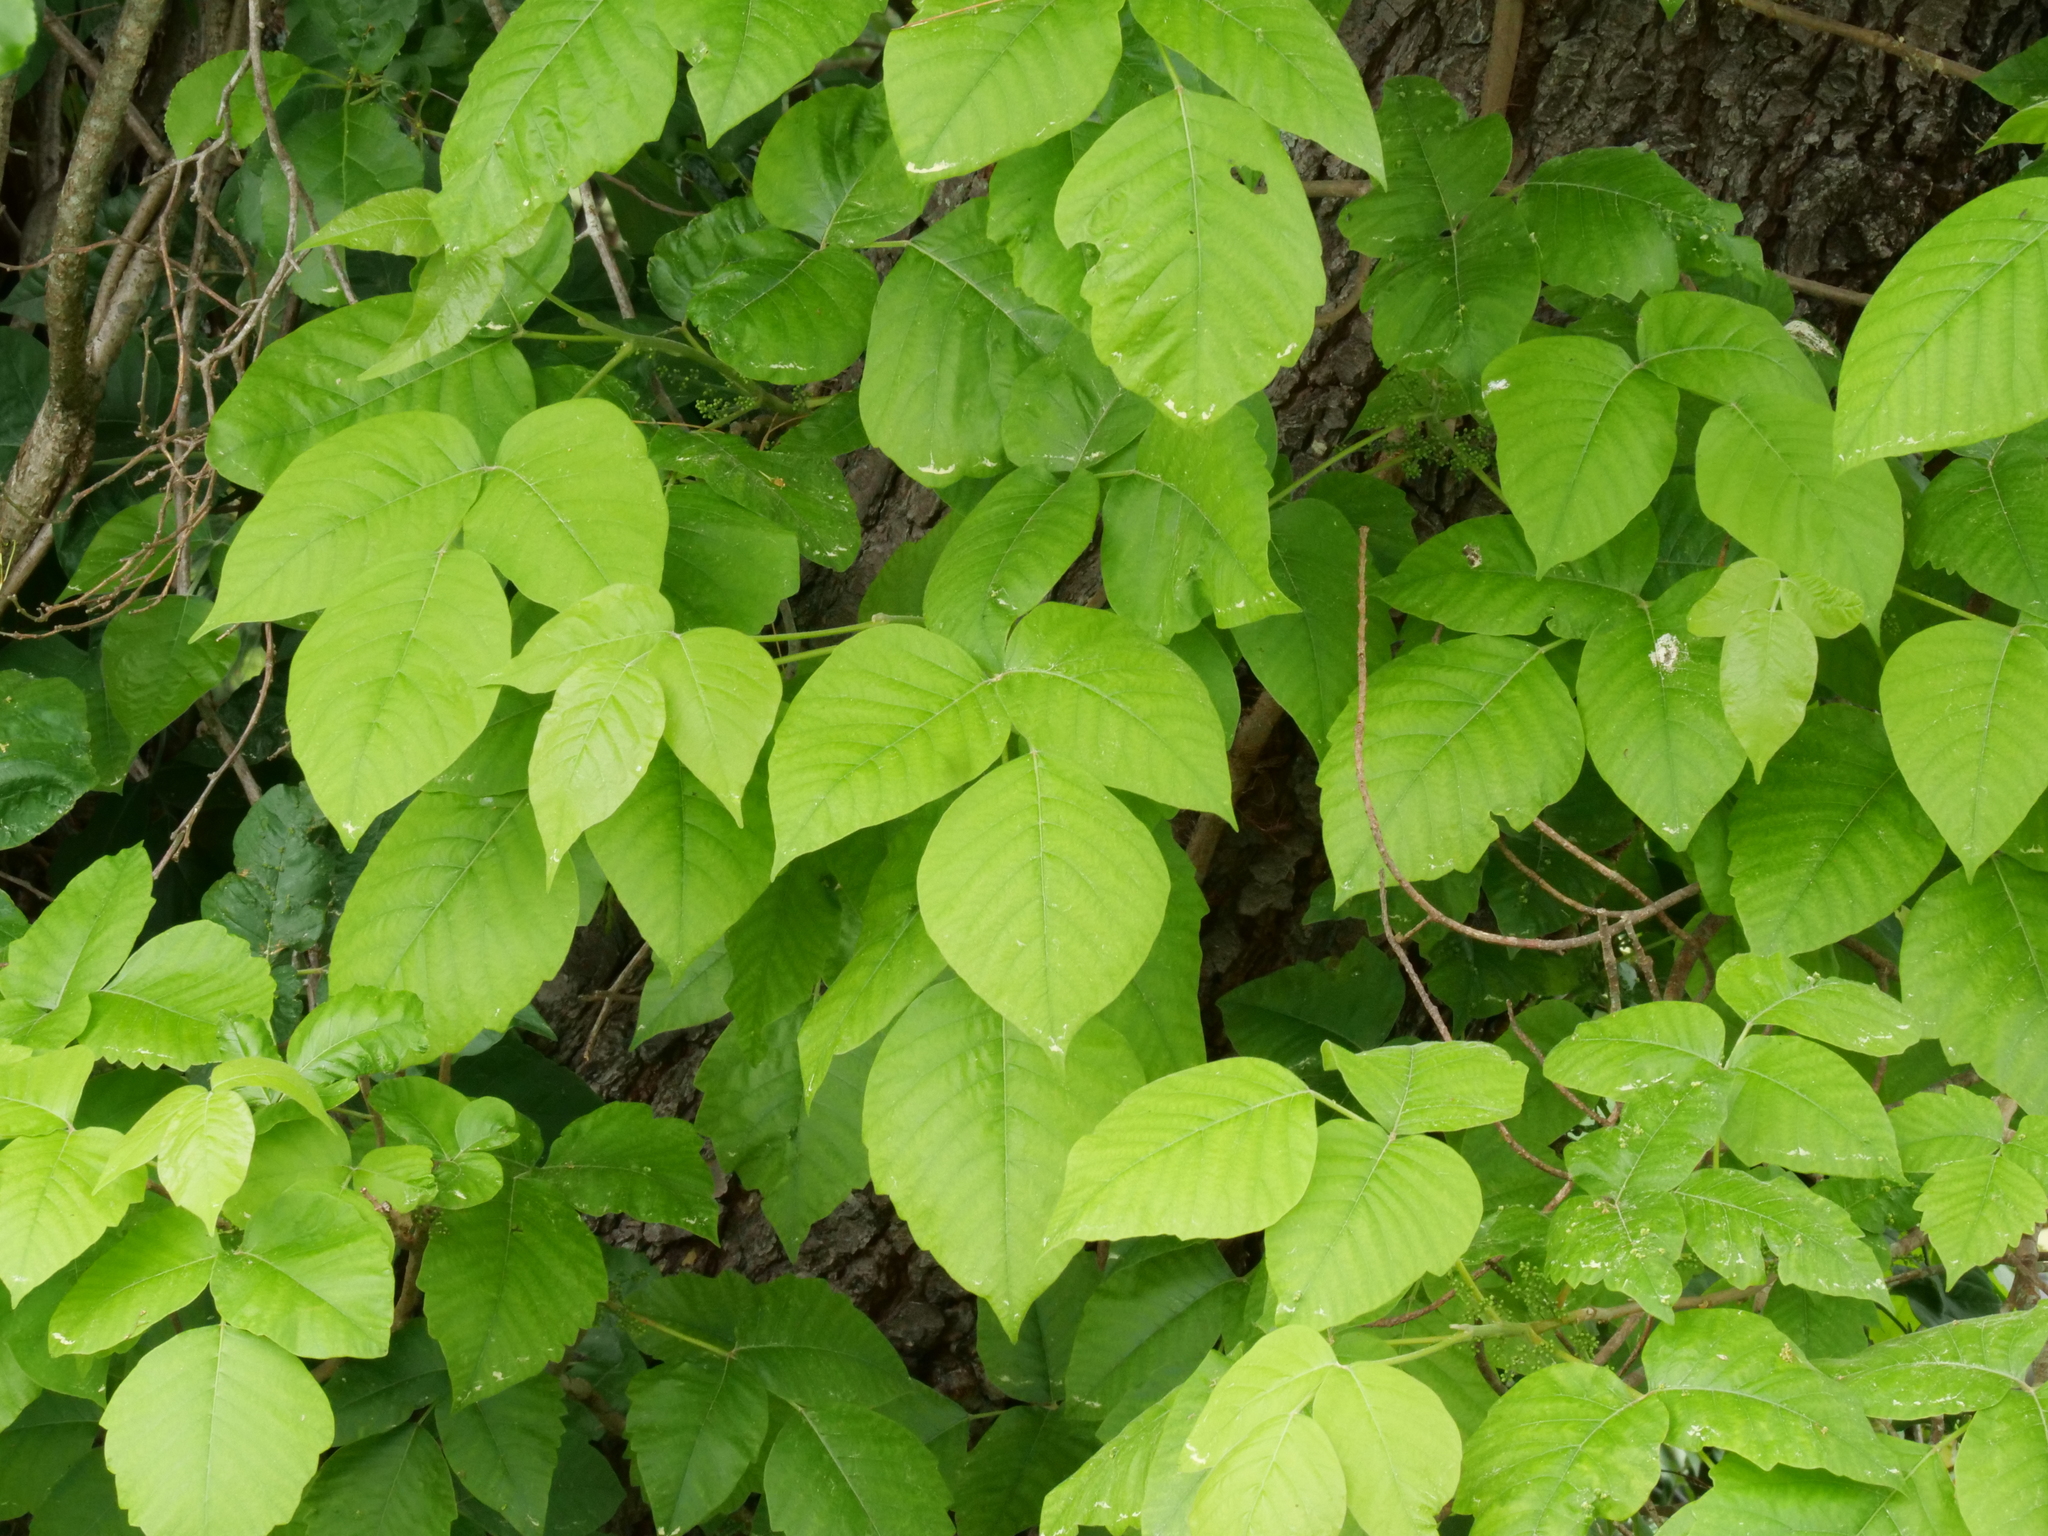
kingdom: Plantae
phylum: Tracheophyta
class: Magnoliopsida
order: Sapindales
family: Anacardiaceae
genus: Toxicodendron
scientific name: Toxicodendron radicans
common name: Poison ivy
